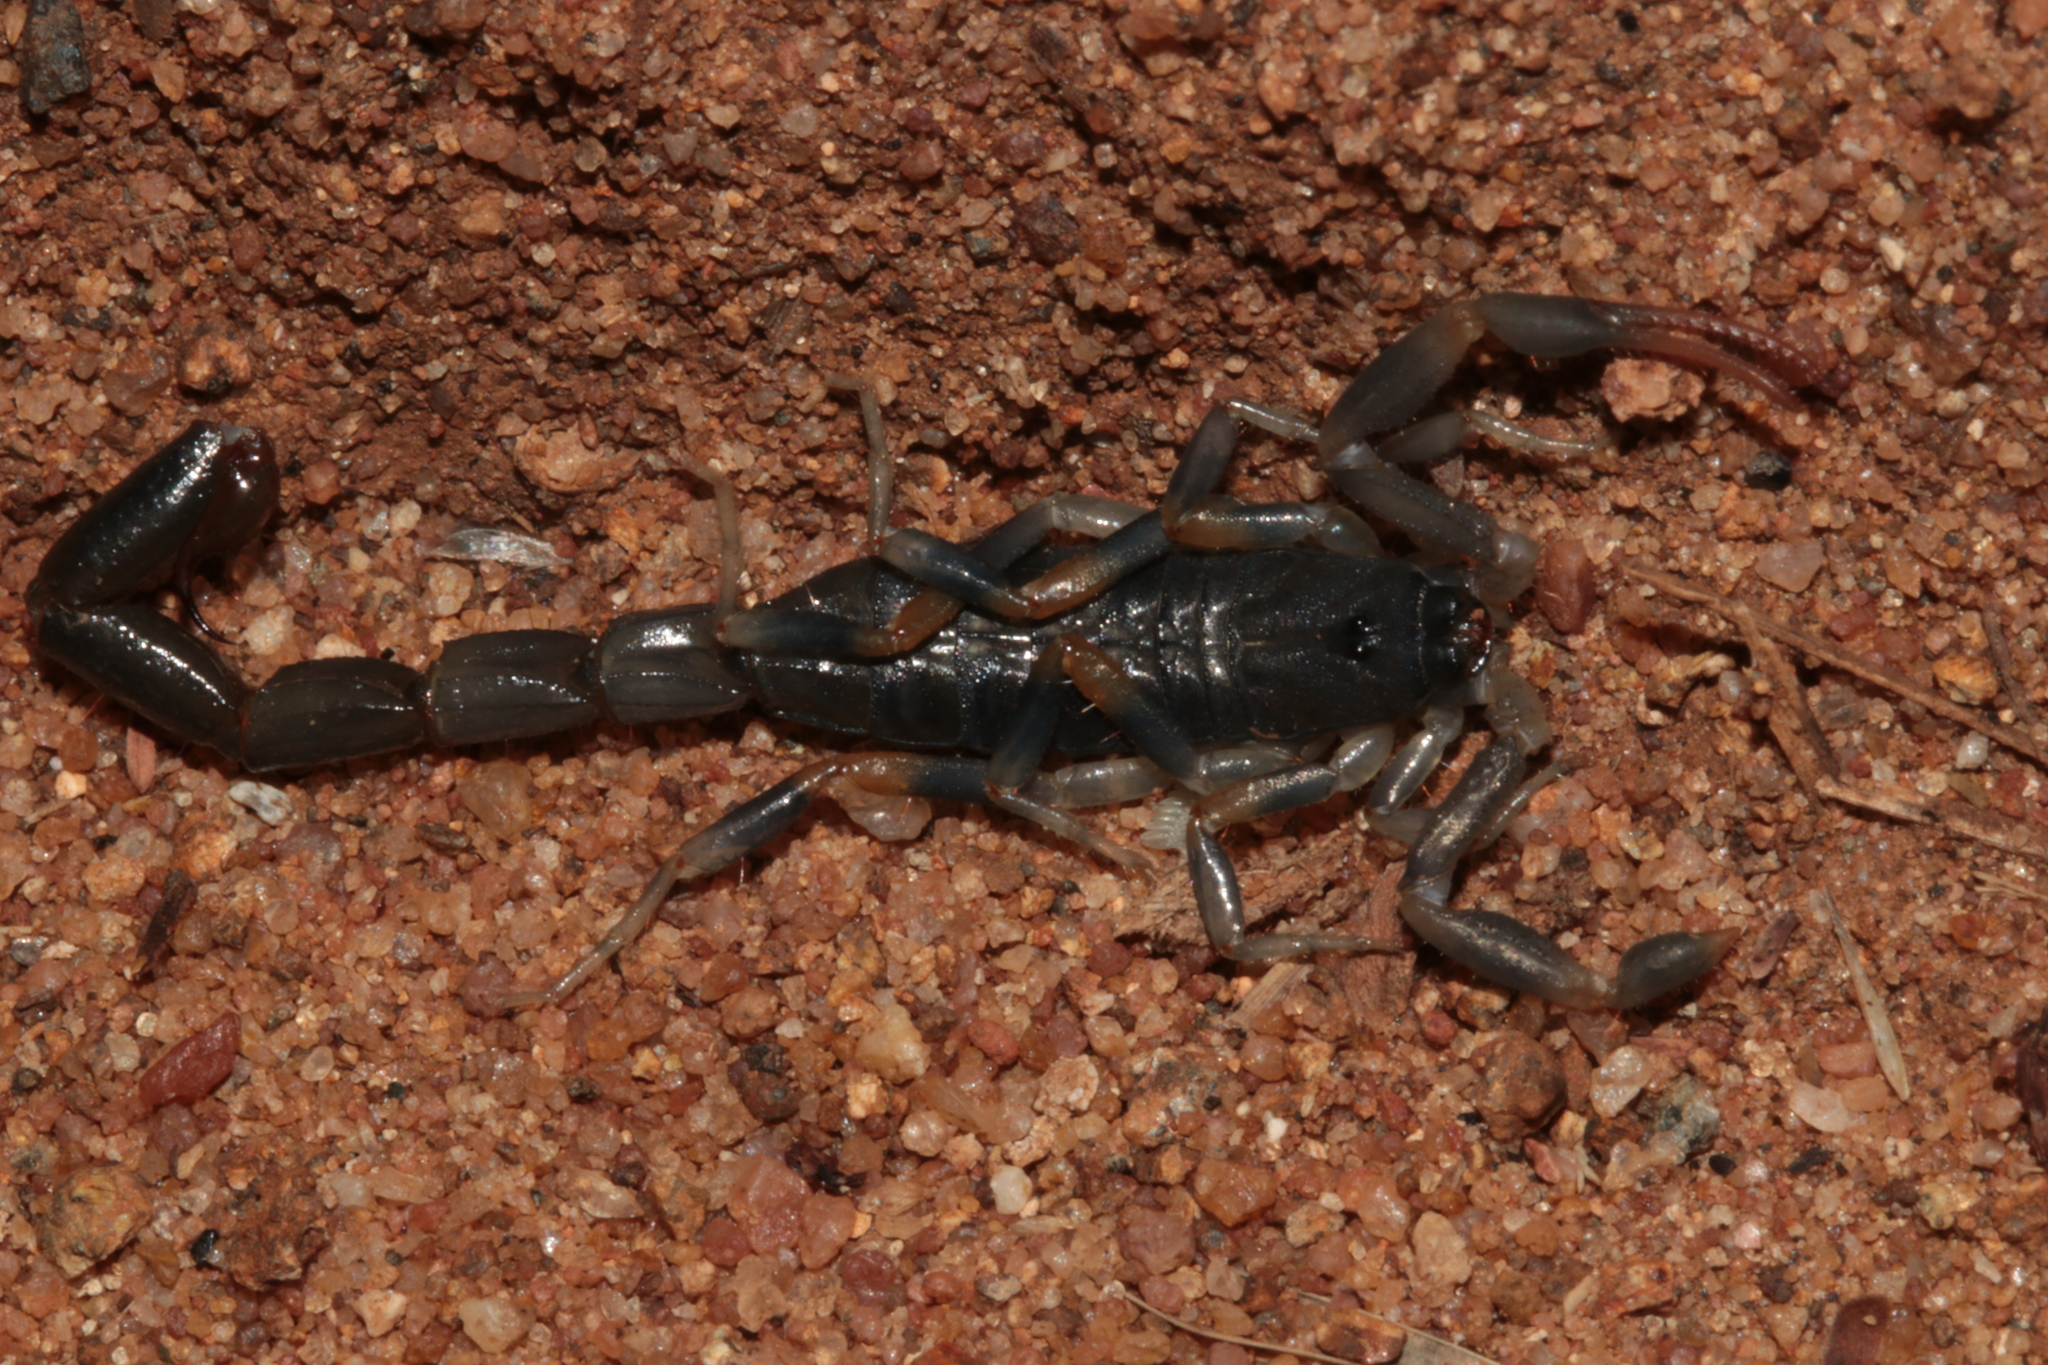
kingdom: Animalia
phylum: Arthropoda
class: Arachnida
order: Scorpiones
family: Buthidae
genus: Uroplectes
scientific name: Uroplectes flavoviridis
